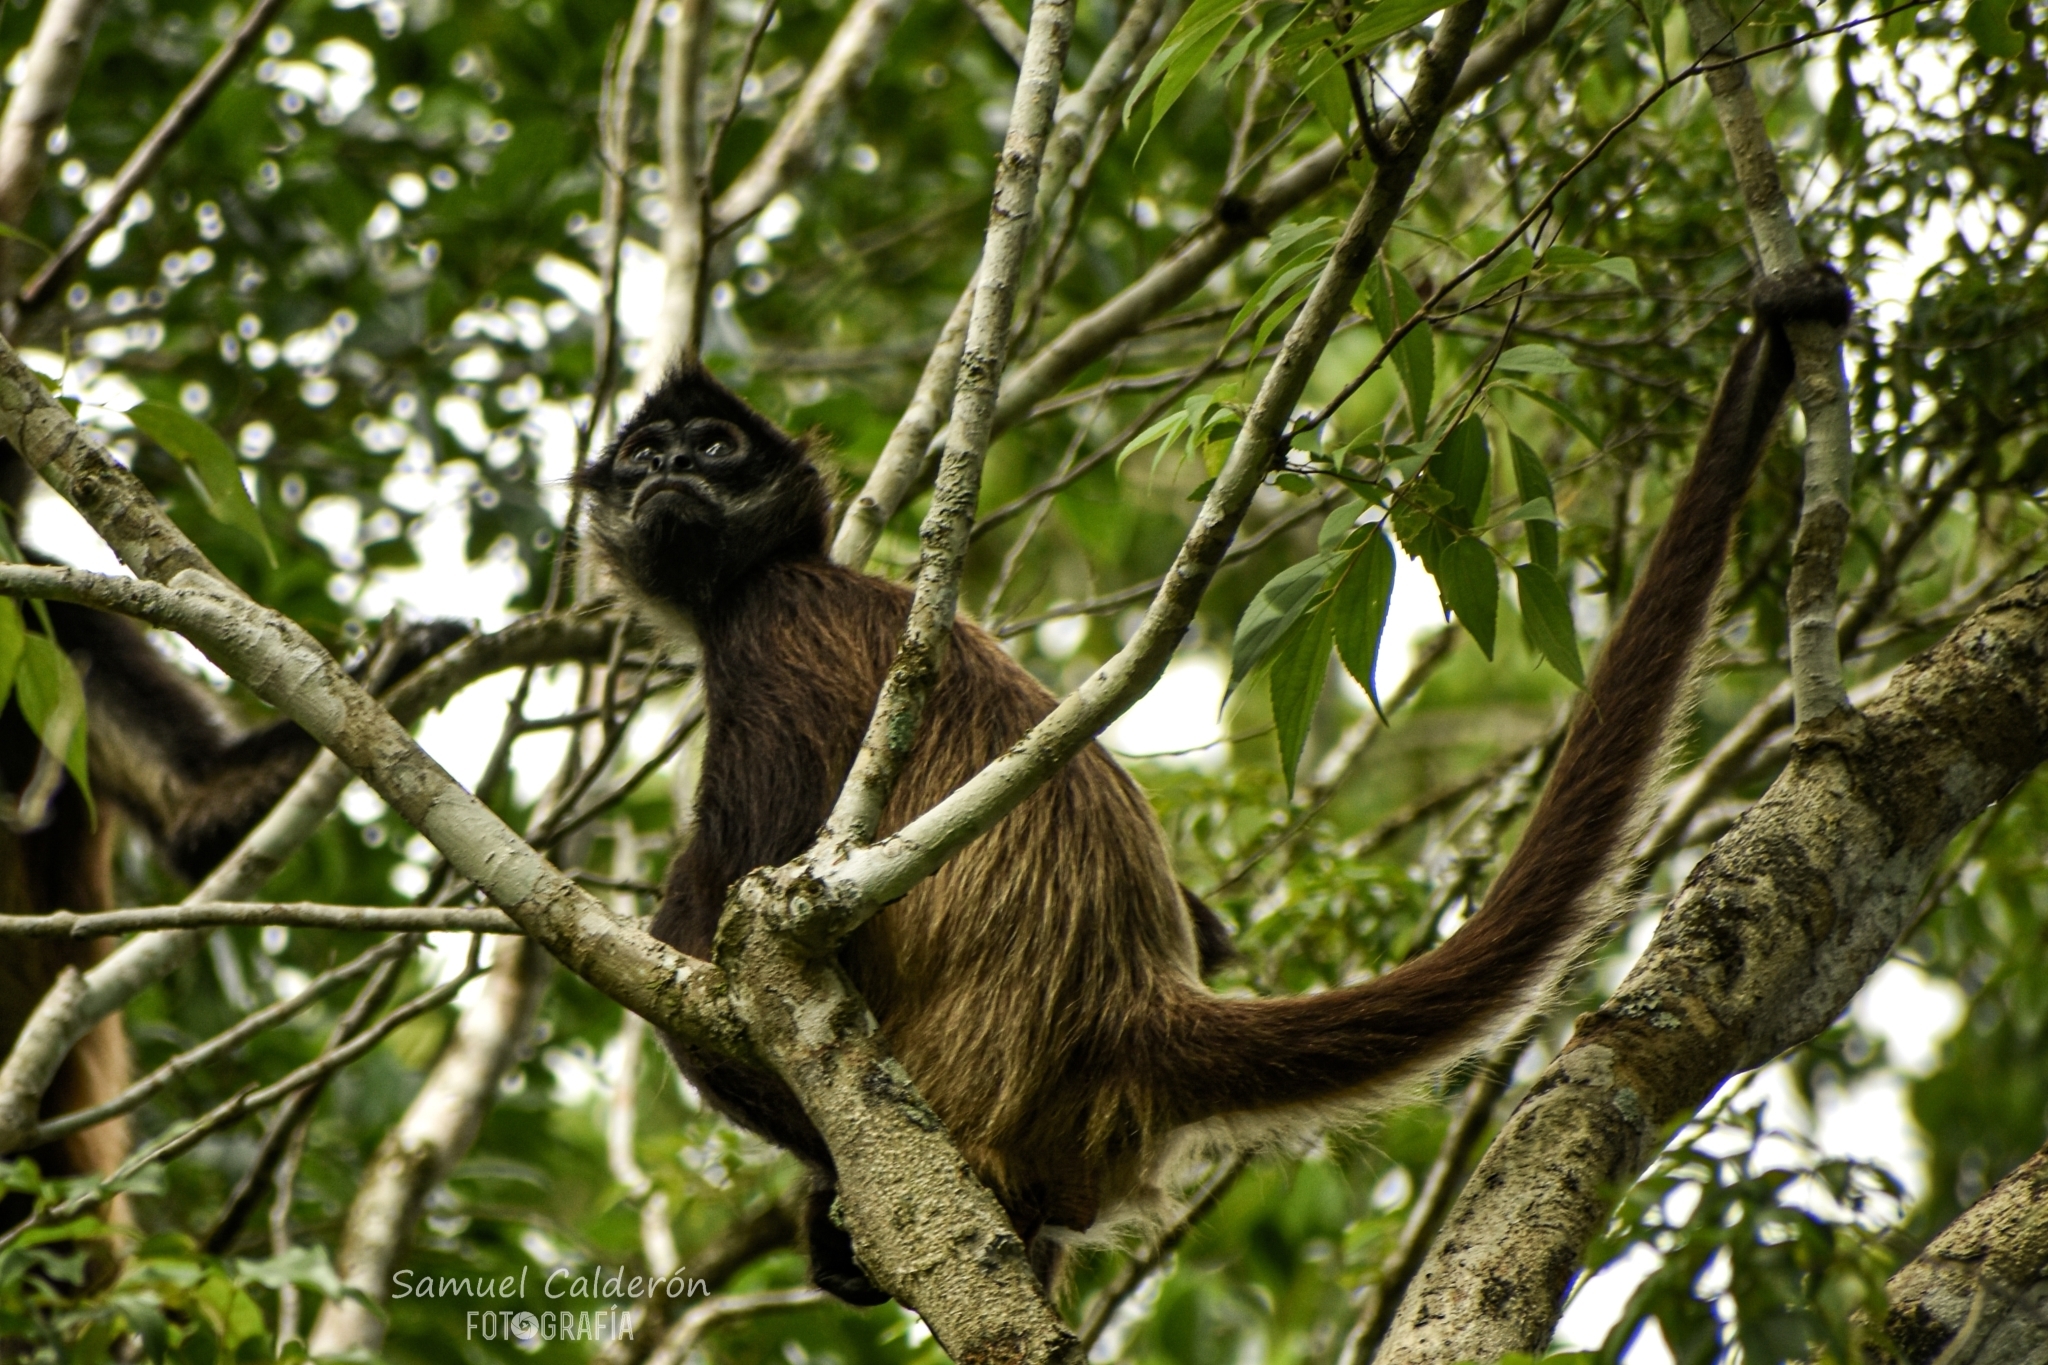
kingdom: Animalia
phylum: Chordata
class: Mammalia
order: Primates
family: Atelidae
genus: Ateles
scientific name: Ateles geoffroyi
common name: Black-handed spider monkey
